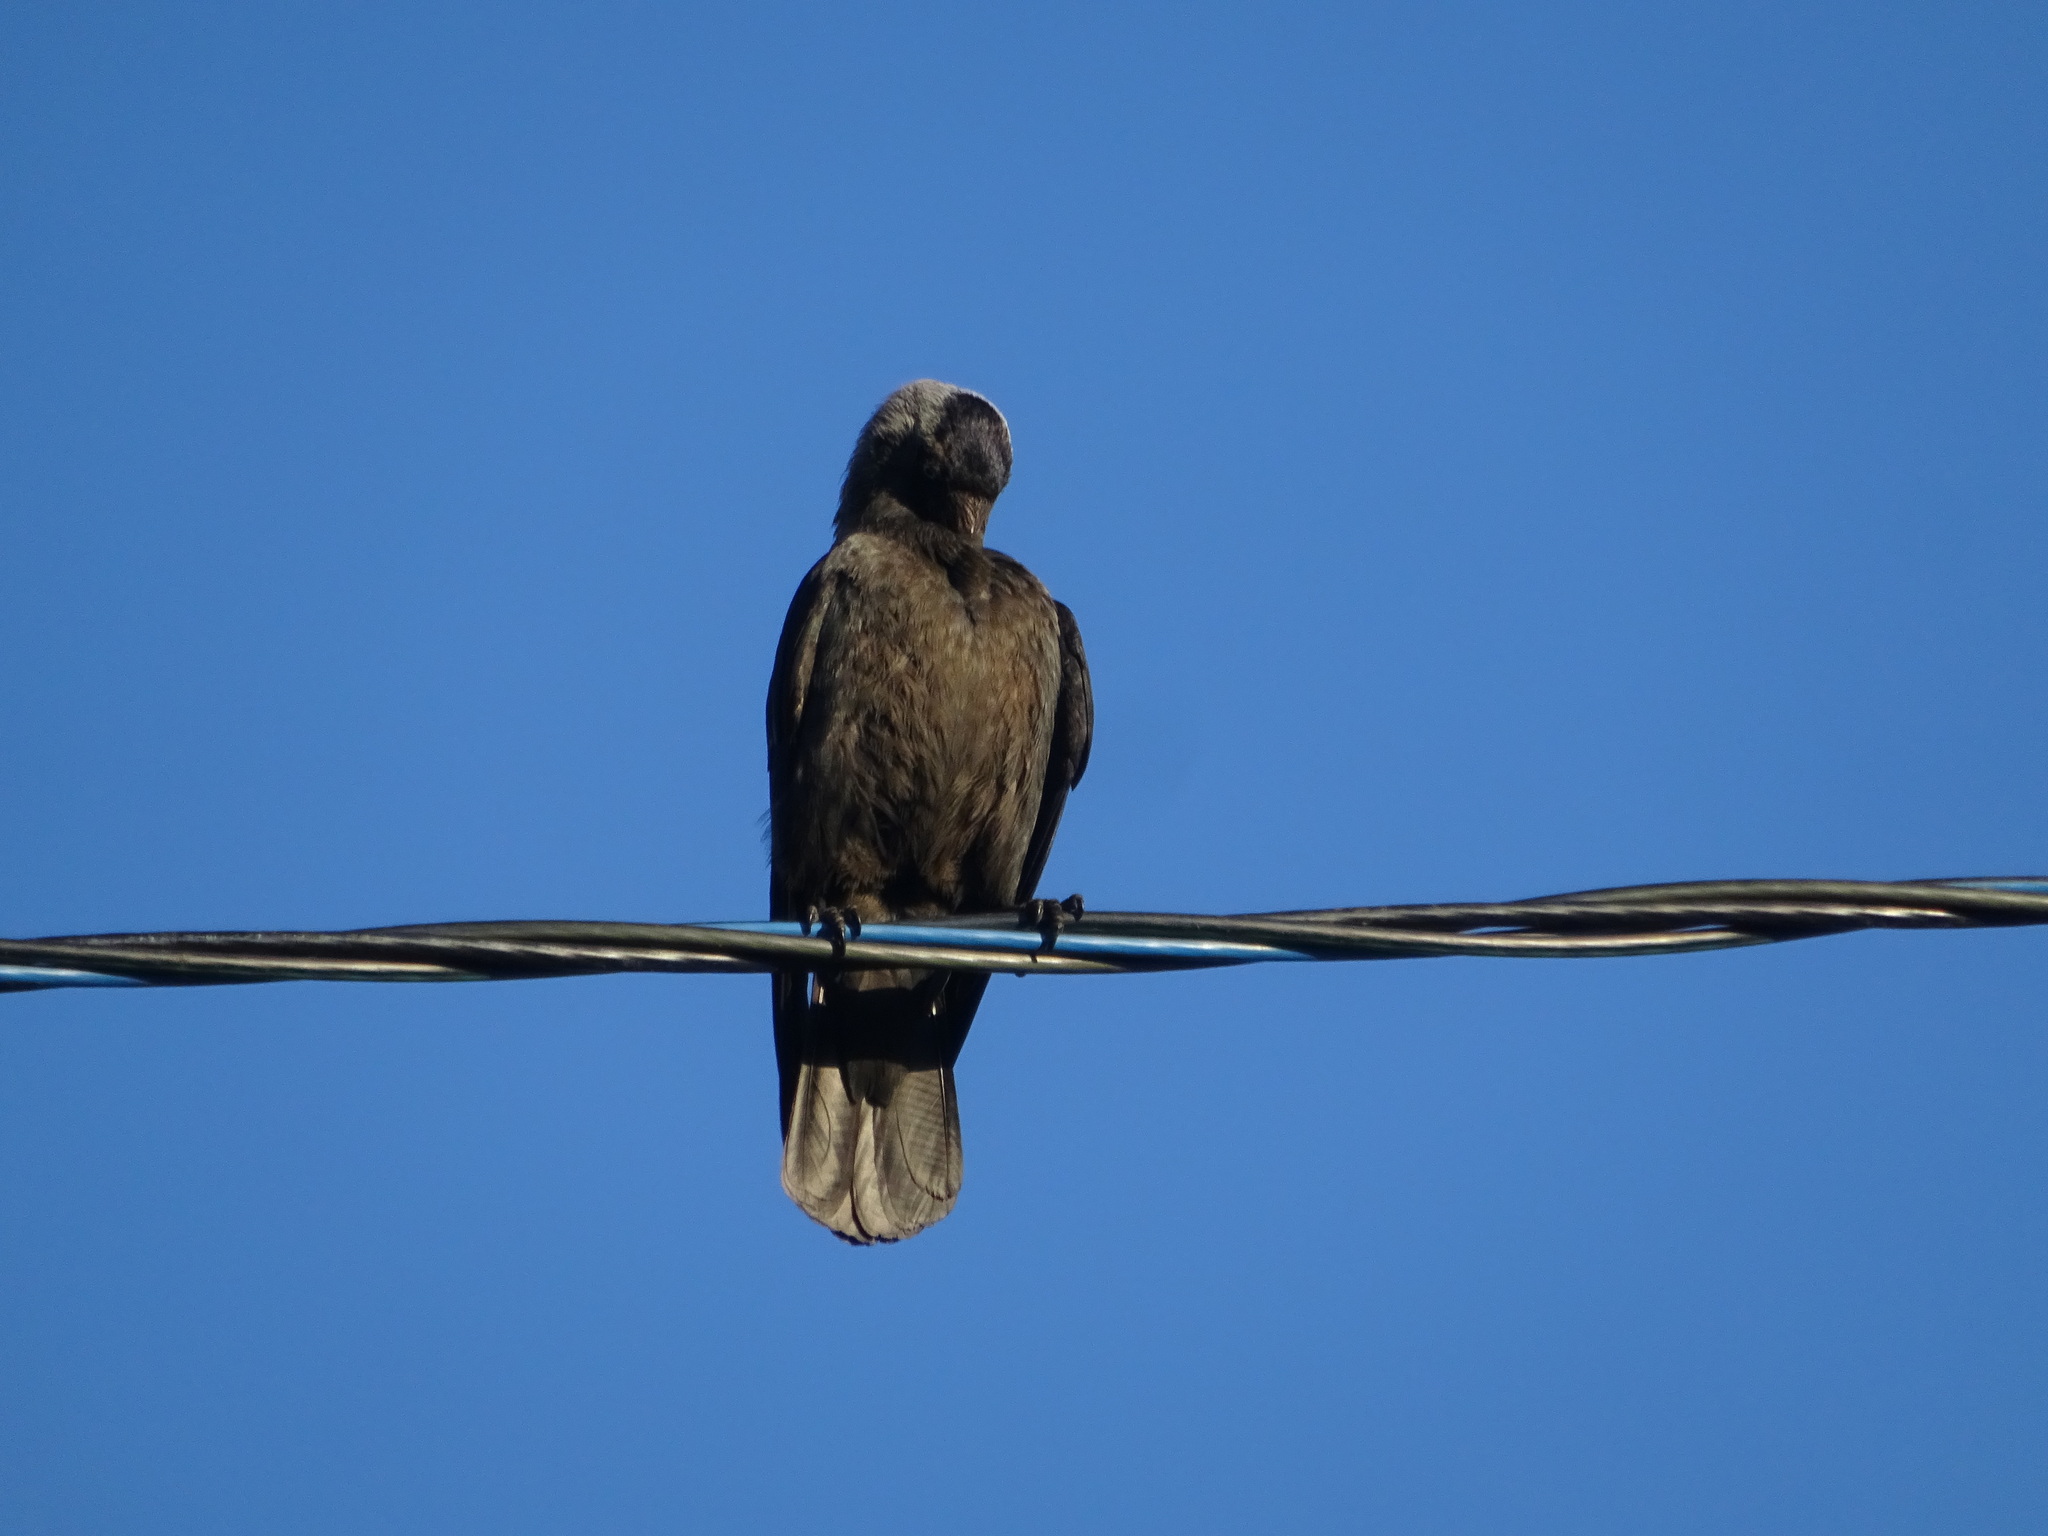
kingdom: Animalia
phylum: Chordata
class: Aves
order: Passeriformes
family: Corvidae
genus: Coloeus
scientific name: Coloeus monedula
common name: Western jackdaw
